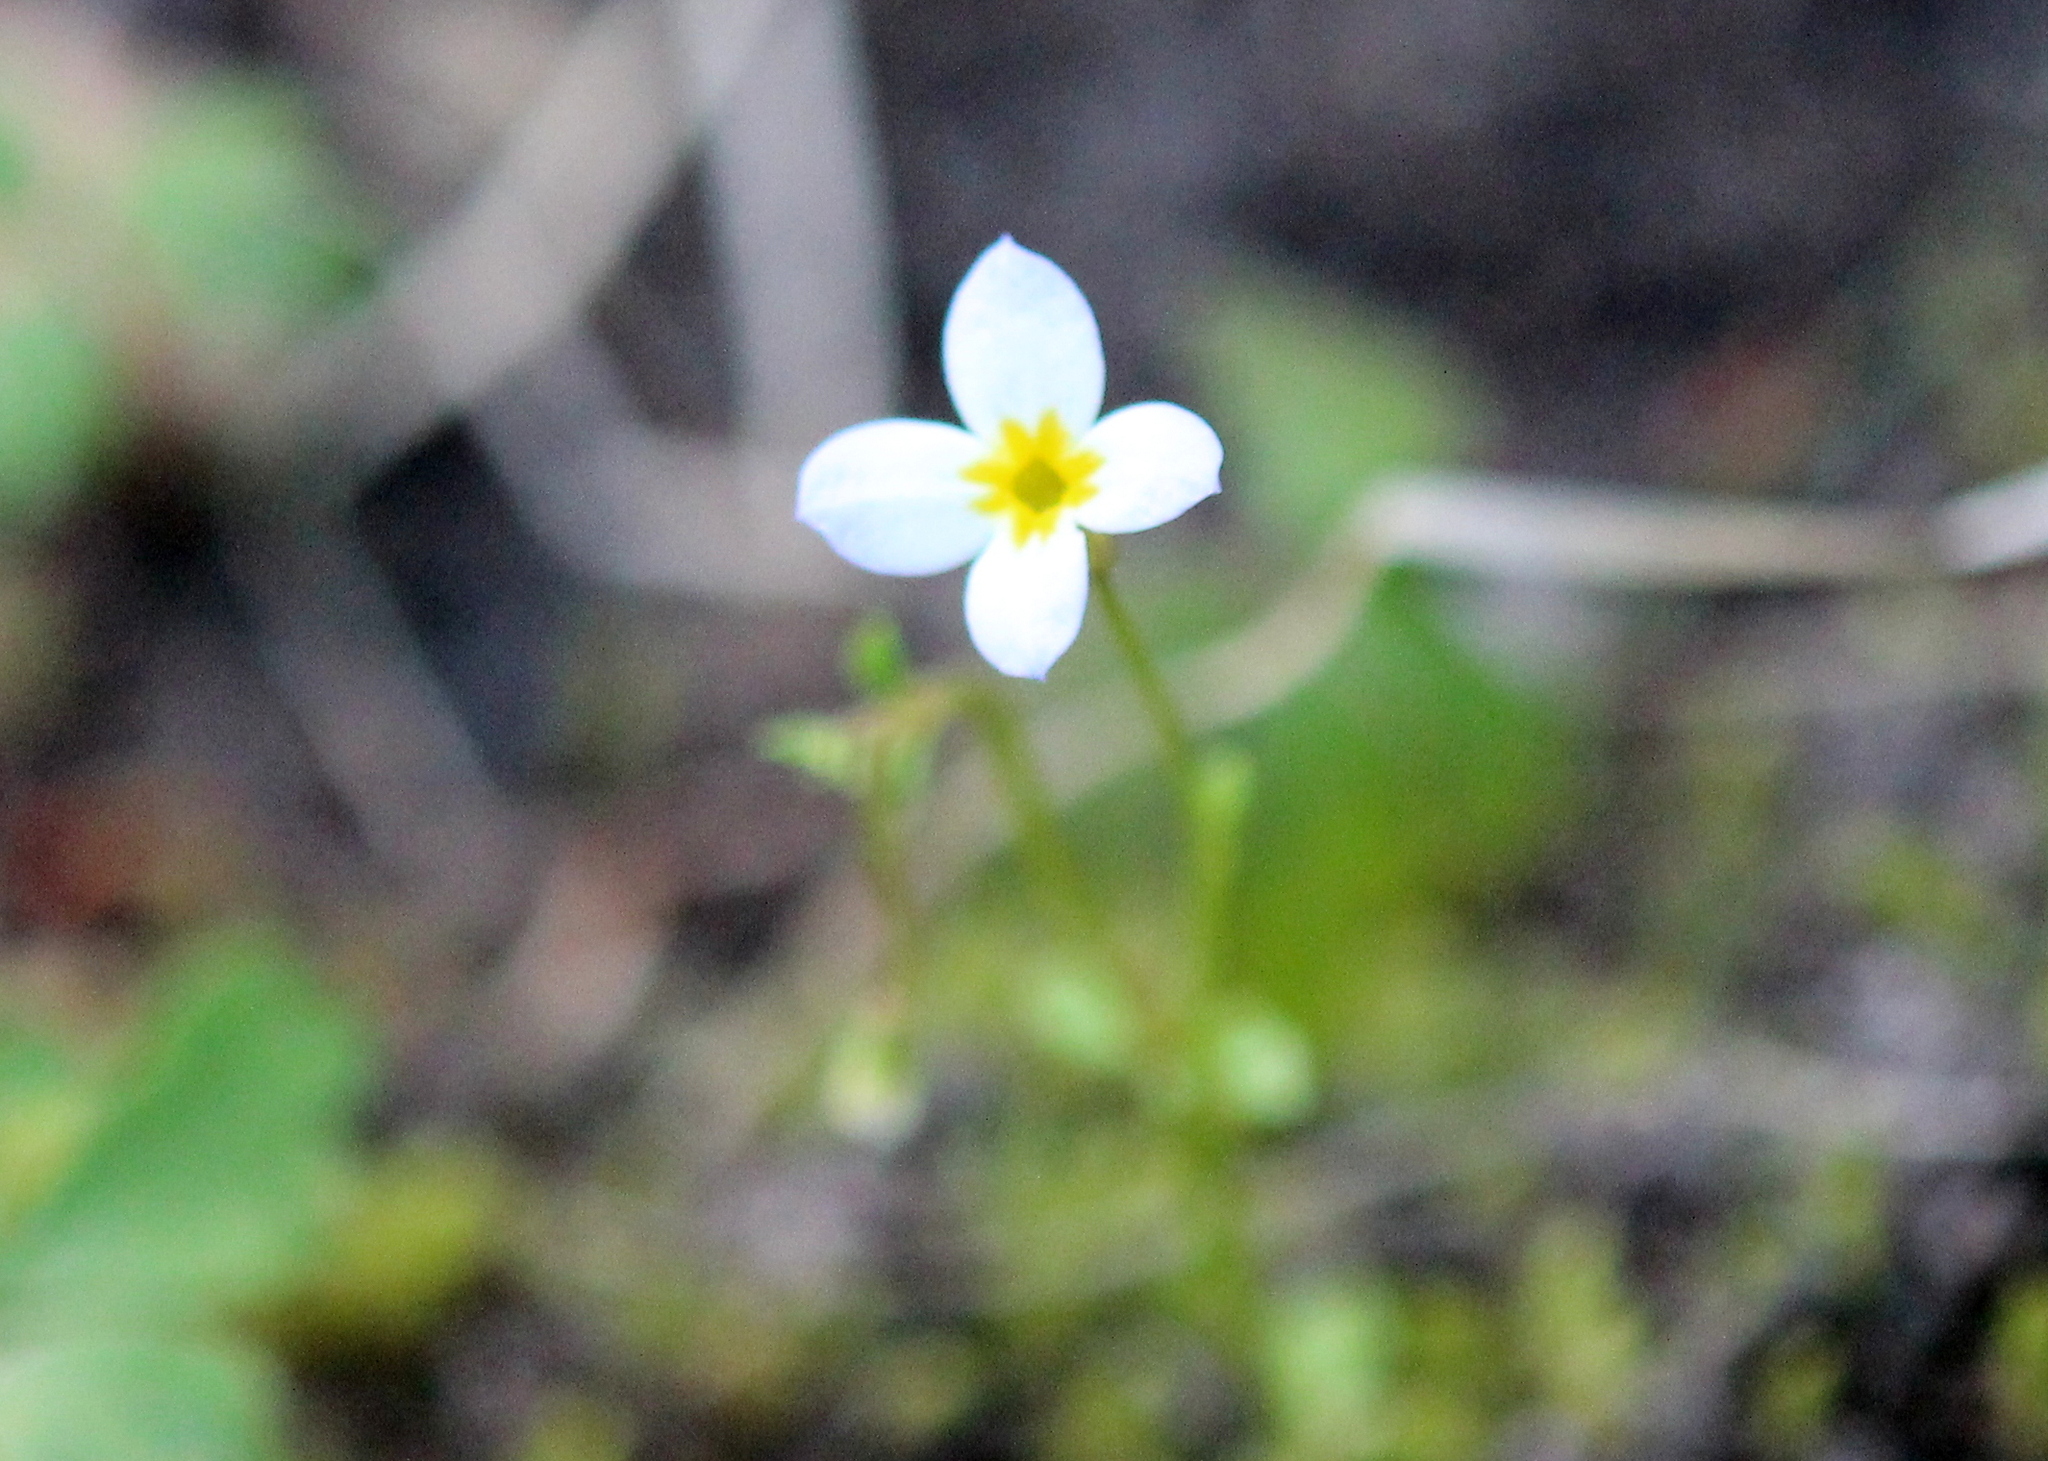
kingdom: Plantae
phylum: Tracheophyta
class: Magnoliopsida
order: Gentianales
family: Rubiaceae
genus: Houstonia
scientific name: Houstonia caerulea
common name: Bluets
